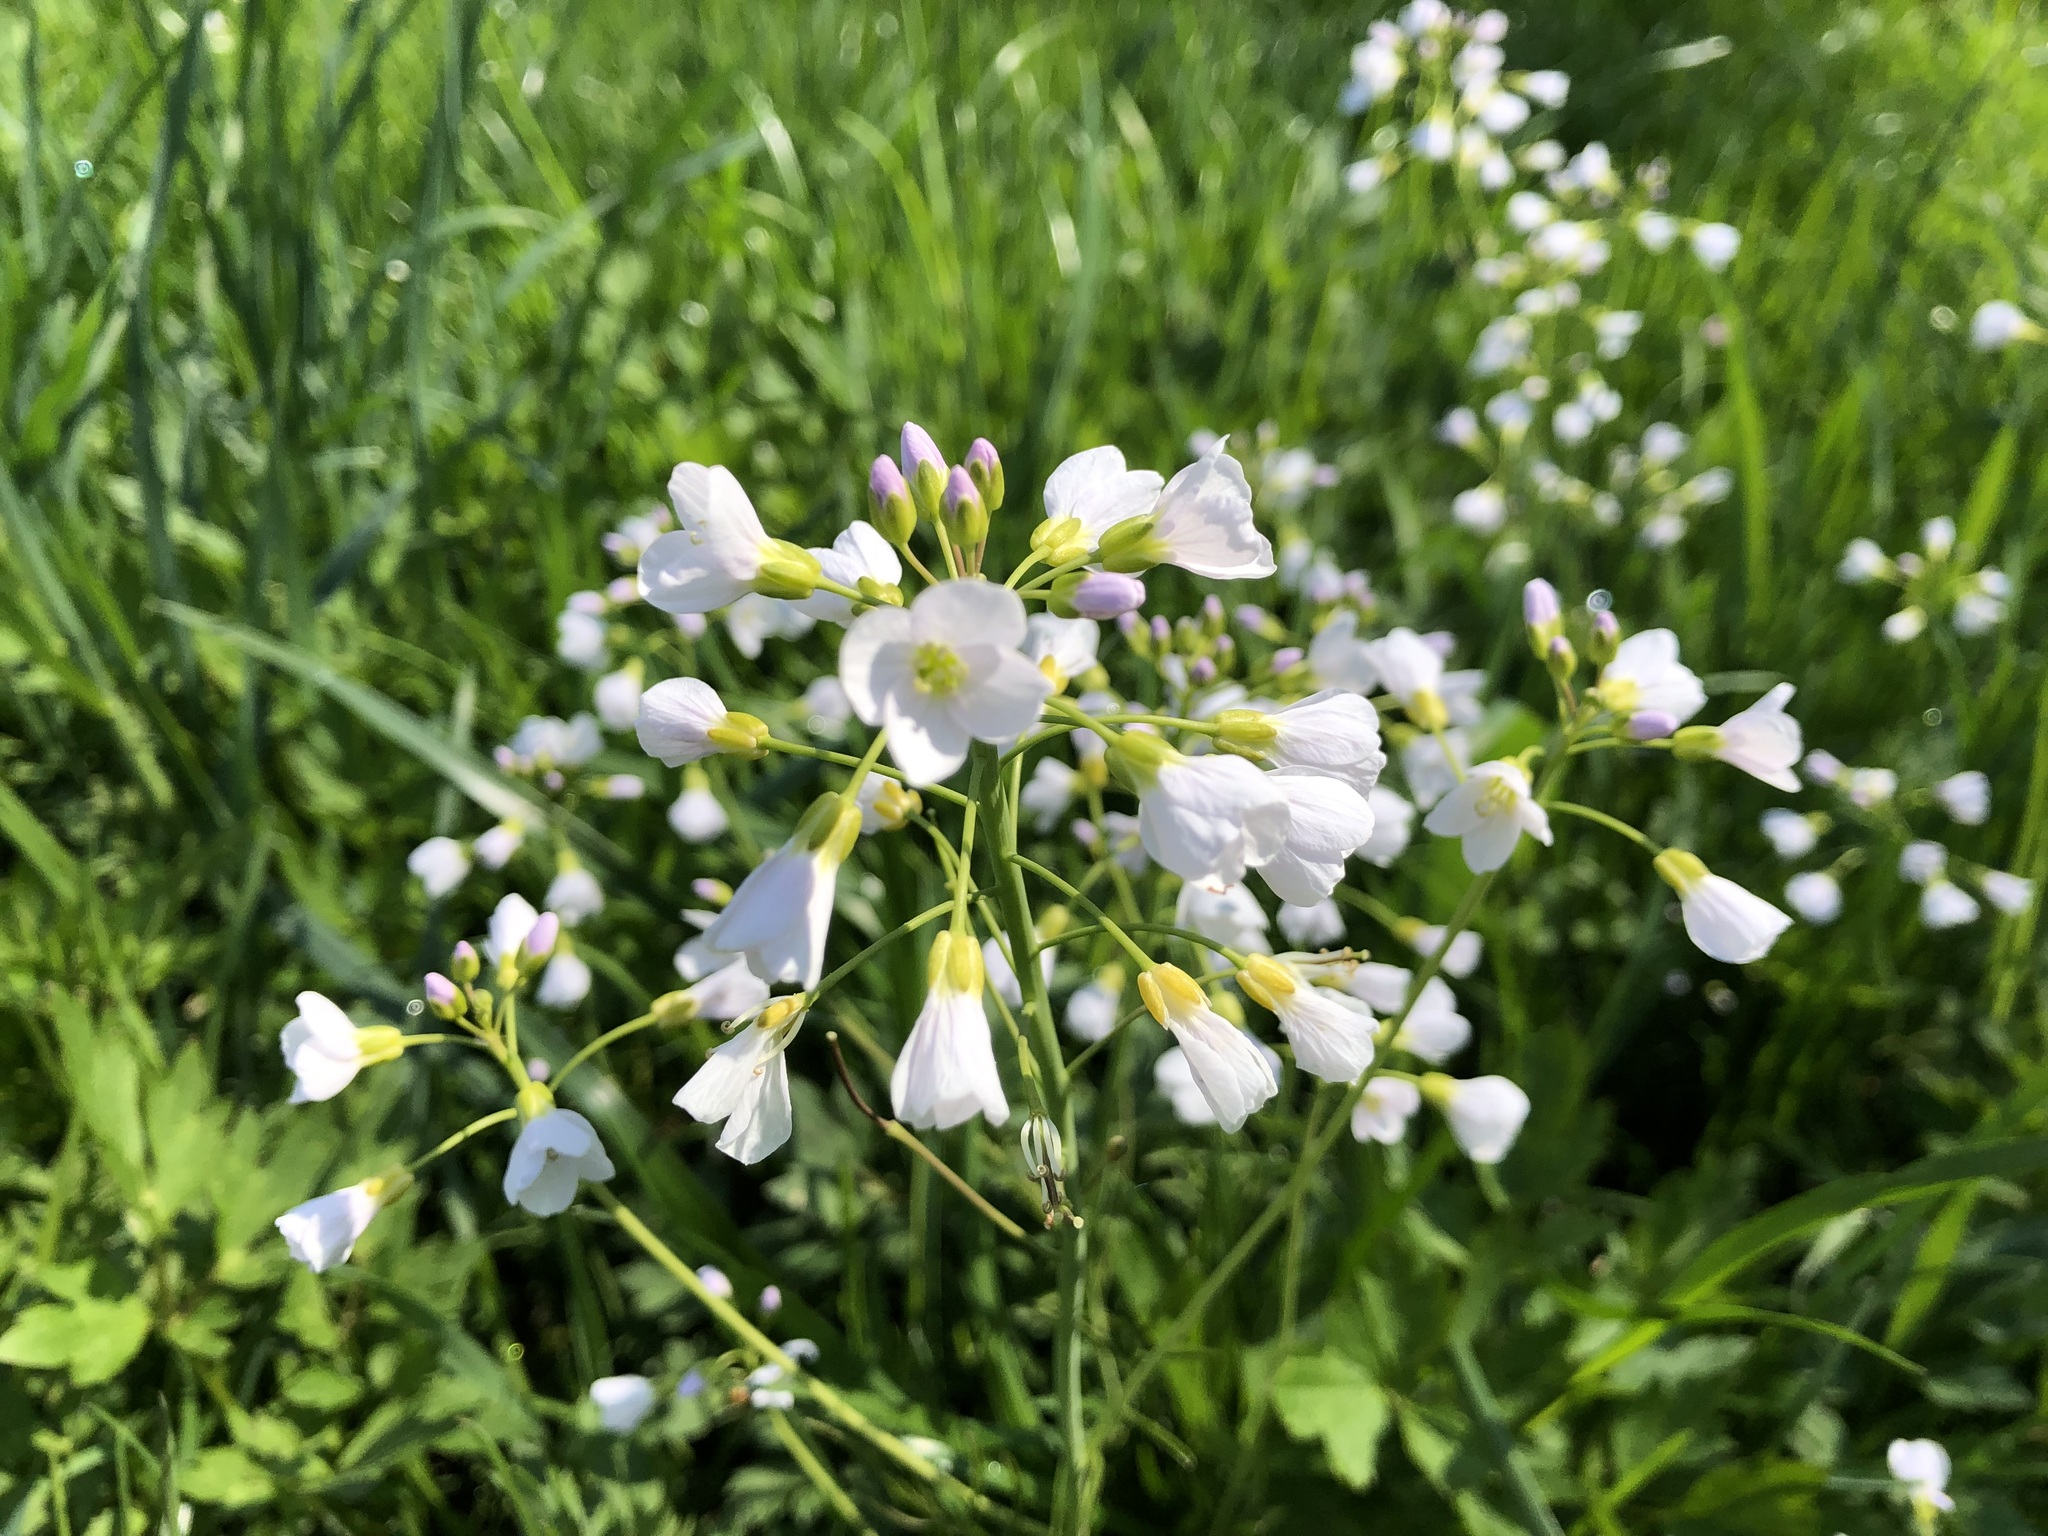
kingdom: Plantae
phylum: Tracheophyta
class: Magnoliopsida
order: Brassicales
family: Brassicaceae
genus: Cardamine
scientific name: Cardamine pratensis
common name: Cuckoo flower
